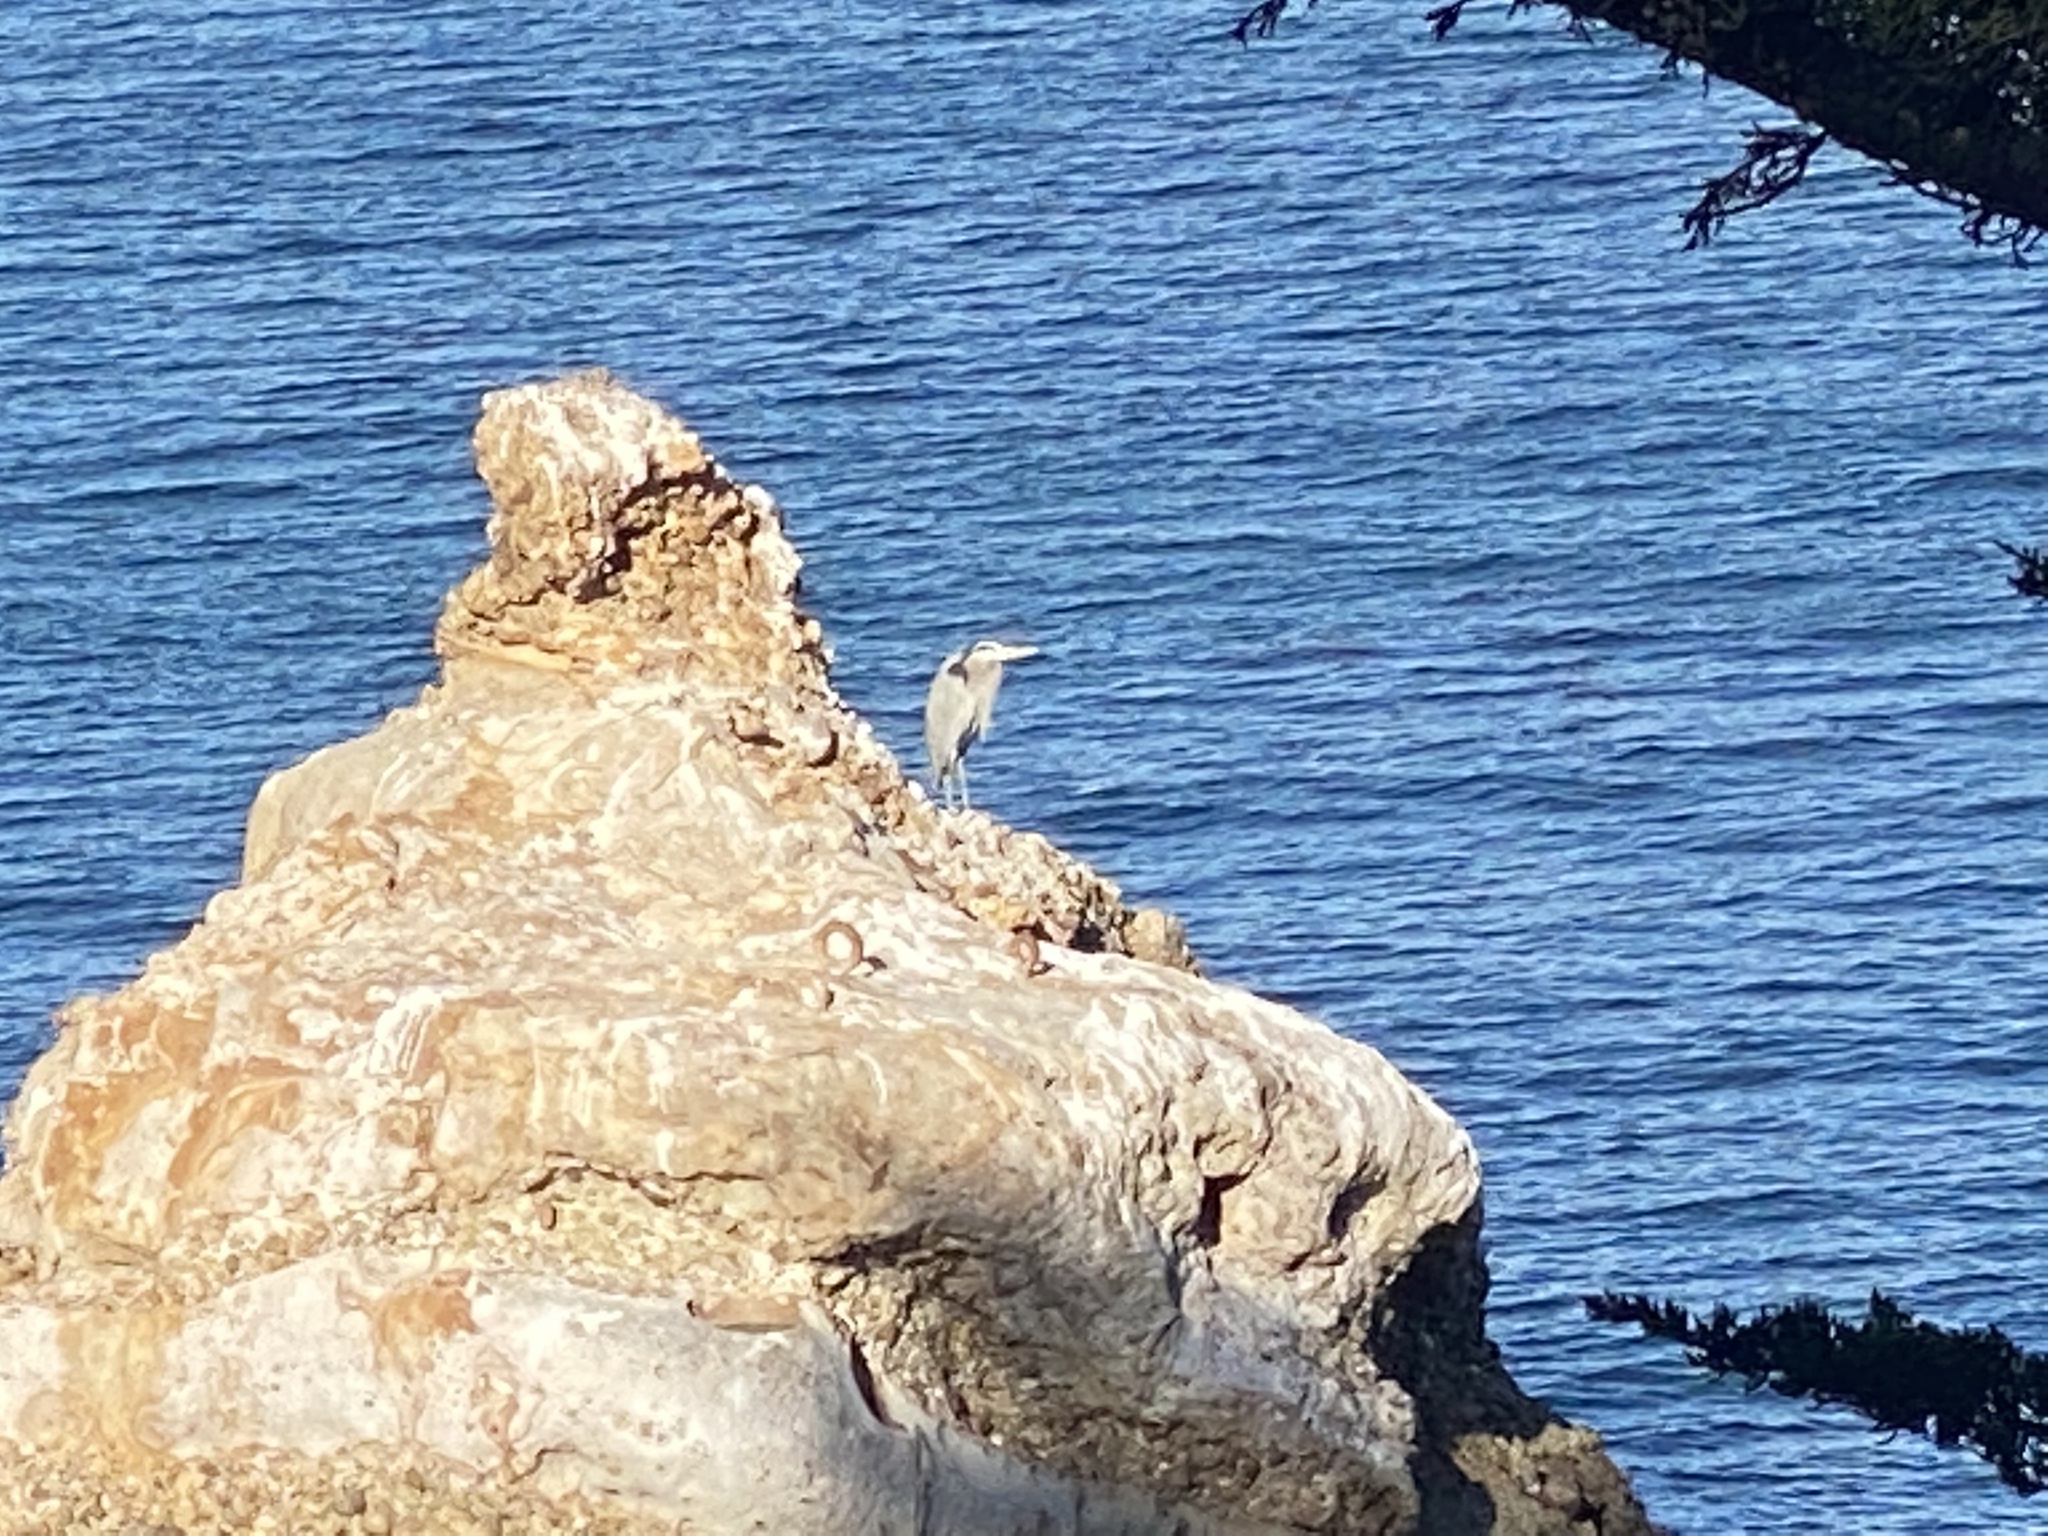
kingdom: Animalia
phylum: Chordata
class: Aves
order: Pelecaniformes
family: Ardeidae
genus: Ardea
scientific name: Ardea herodias
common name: Great blue heron
